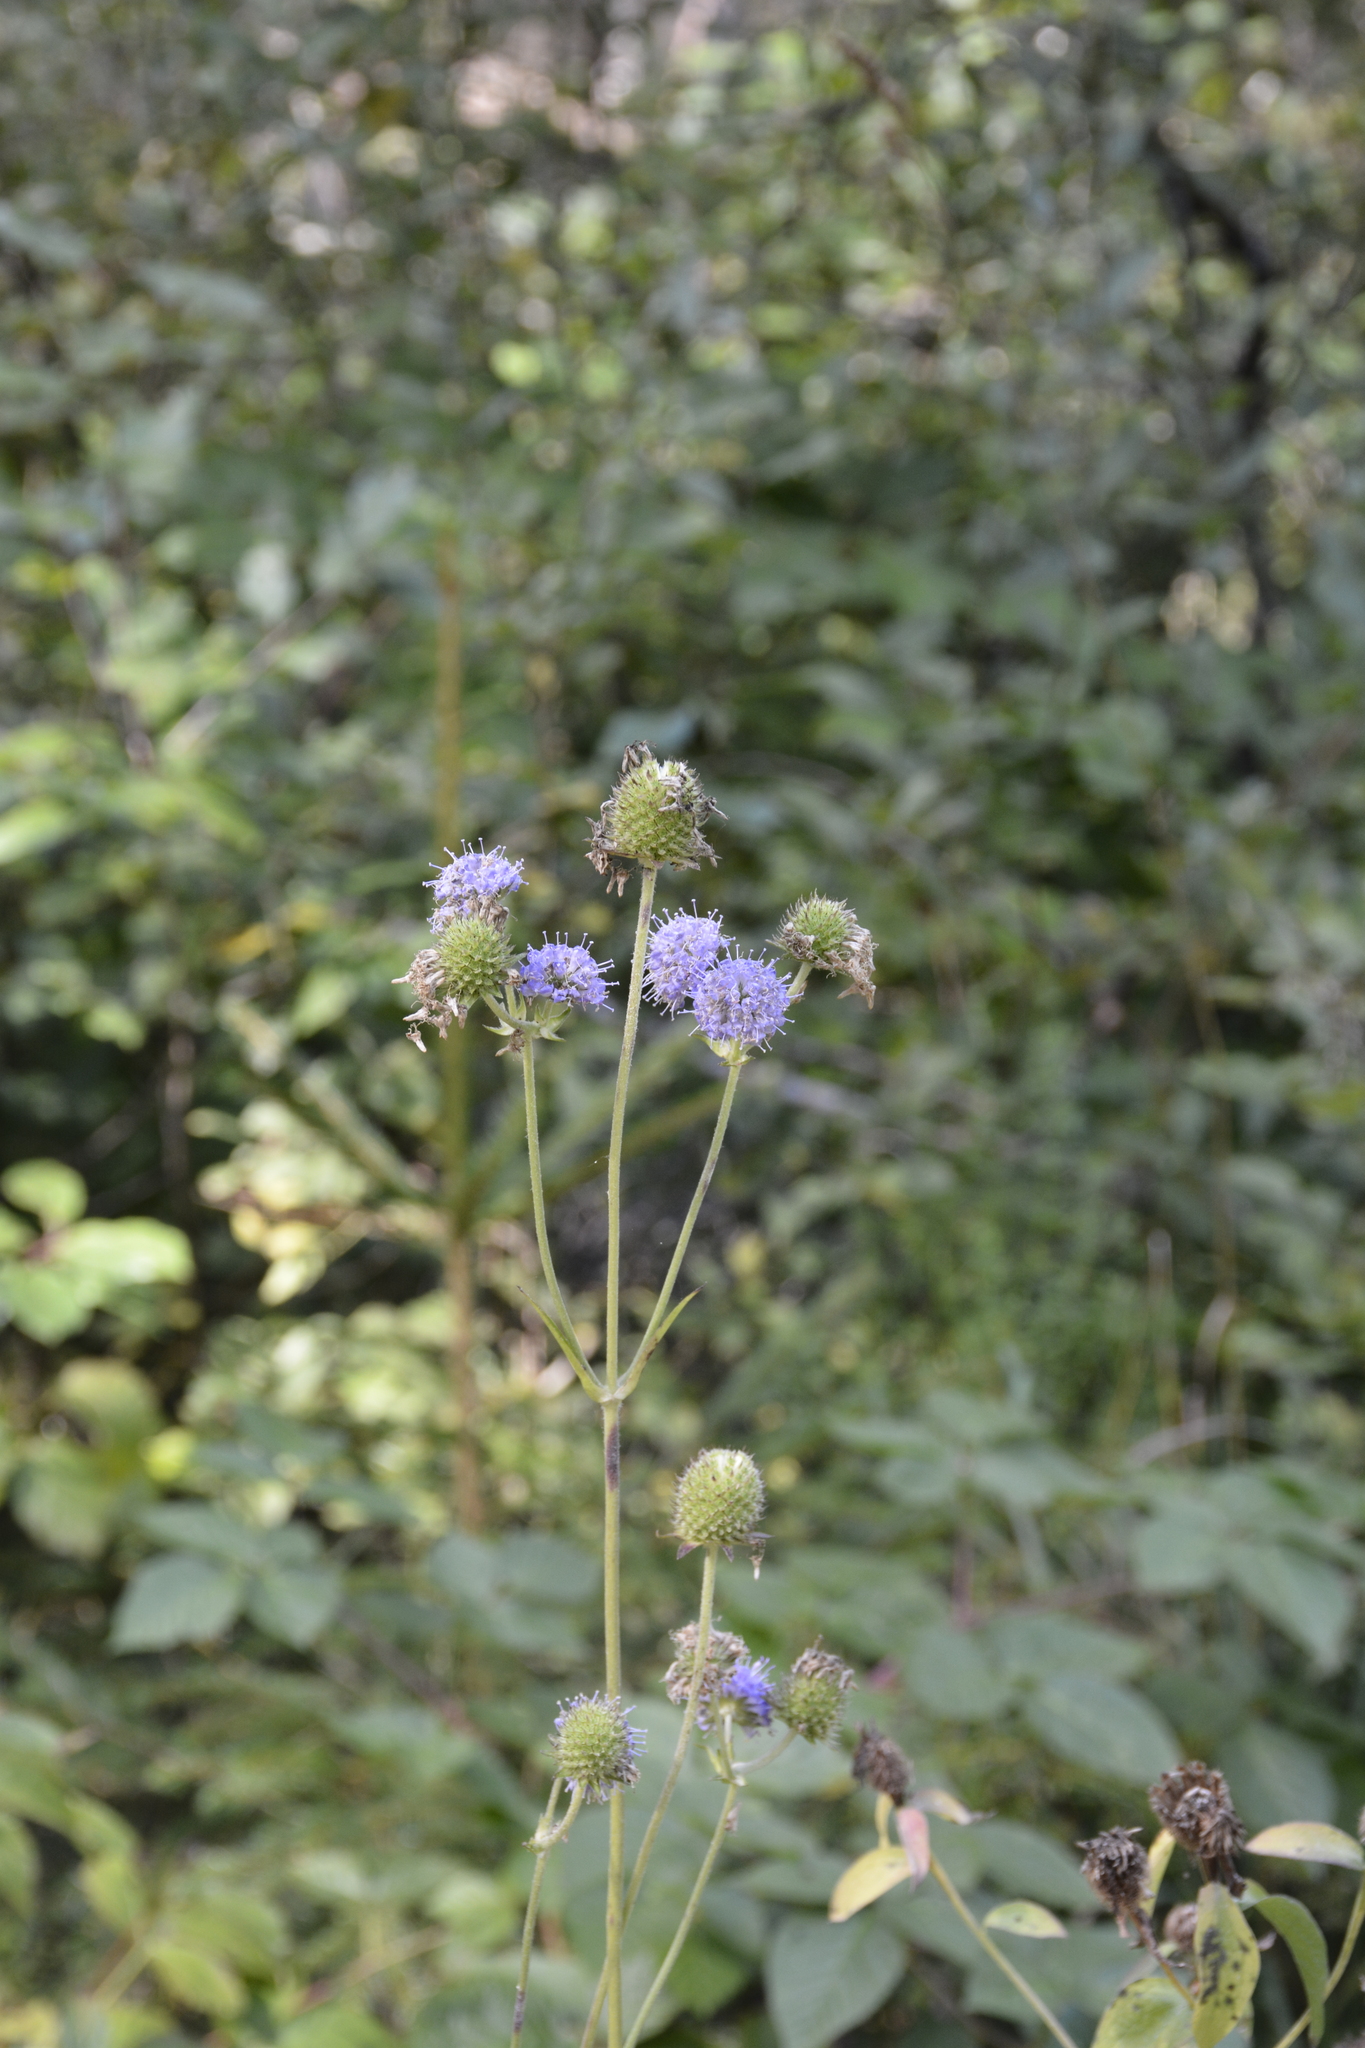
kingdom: Plantae
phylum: Tracheophyta
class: Magnoliopsida
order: Dipsacales
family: Caprifoliaceae
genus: Succisa
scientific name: Succisa pratensis
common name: Devil's-bit
